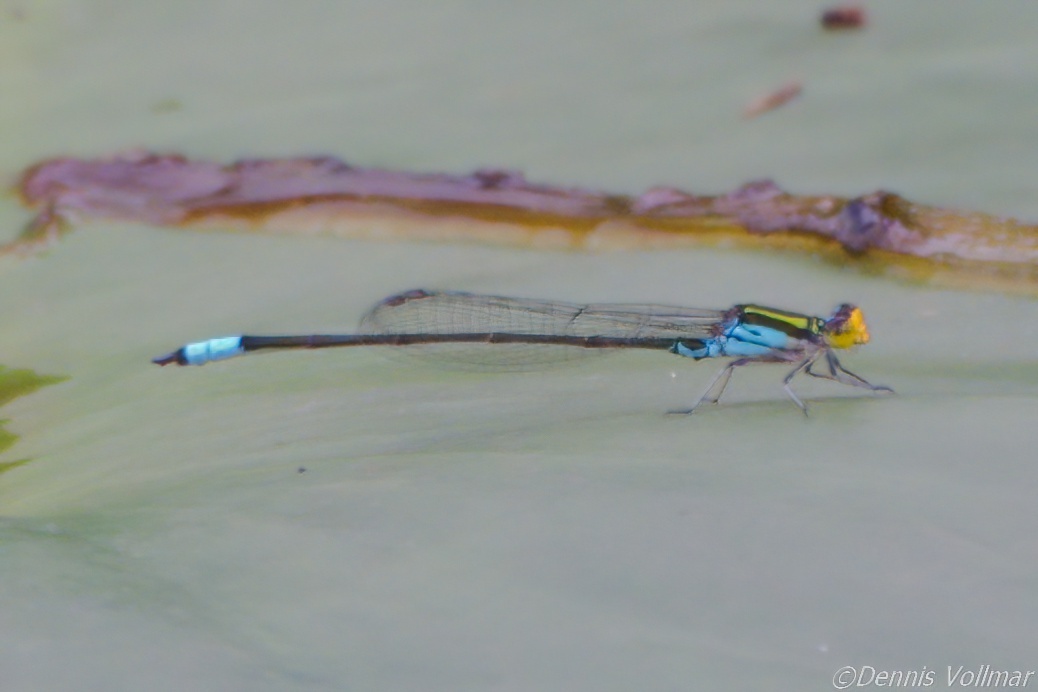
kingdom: Animalia
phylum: Arthropoda
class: Insecta
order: Odonata
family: Coenagrionidae
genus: Neoerythromma
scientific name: Neoerythromma cultellatum
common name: Caribbean yellowface
